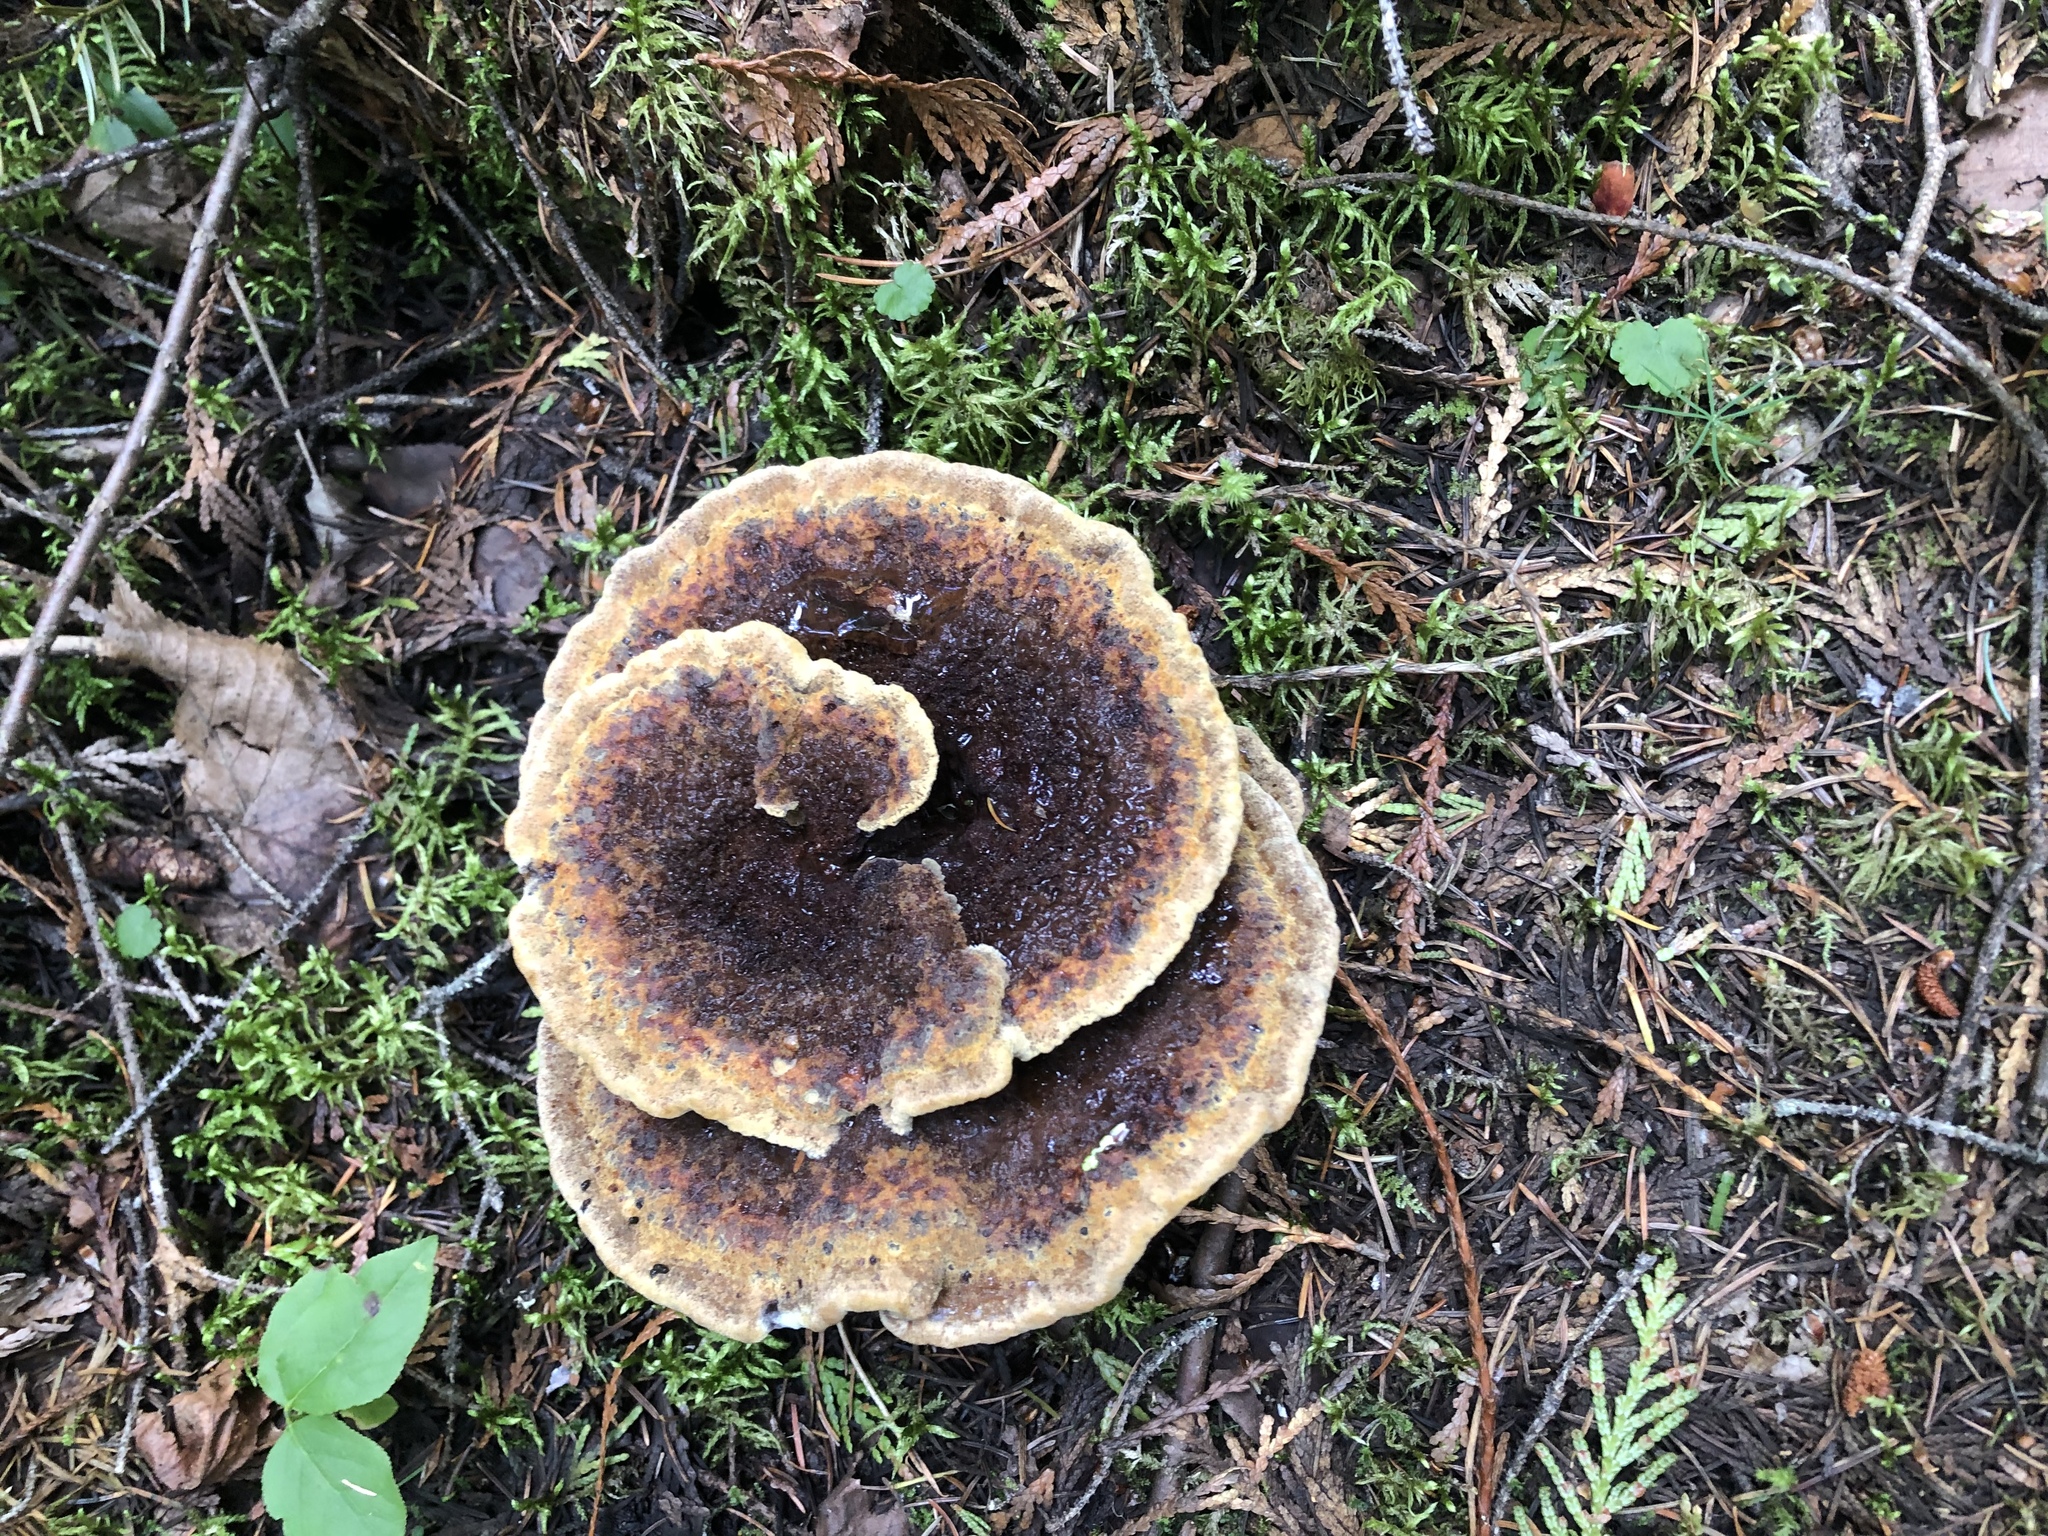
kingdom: Fungi
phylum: Basidiomycota
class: Agaricomycetes
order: Polyporales
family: Laetiporaceae
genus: Phaeolus
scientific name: Phaeolus schweinitzii
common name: Dyer's mazegill
